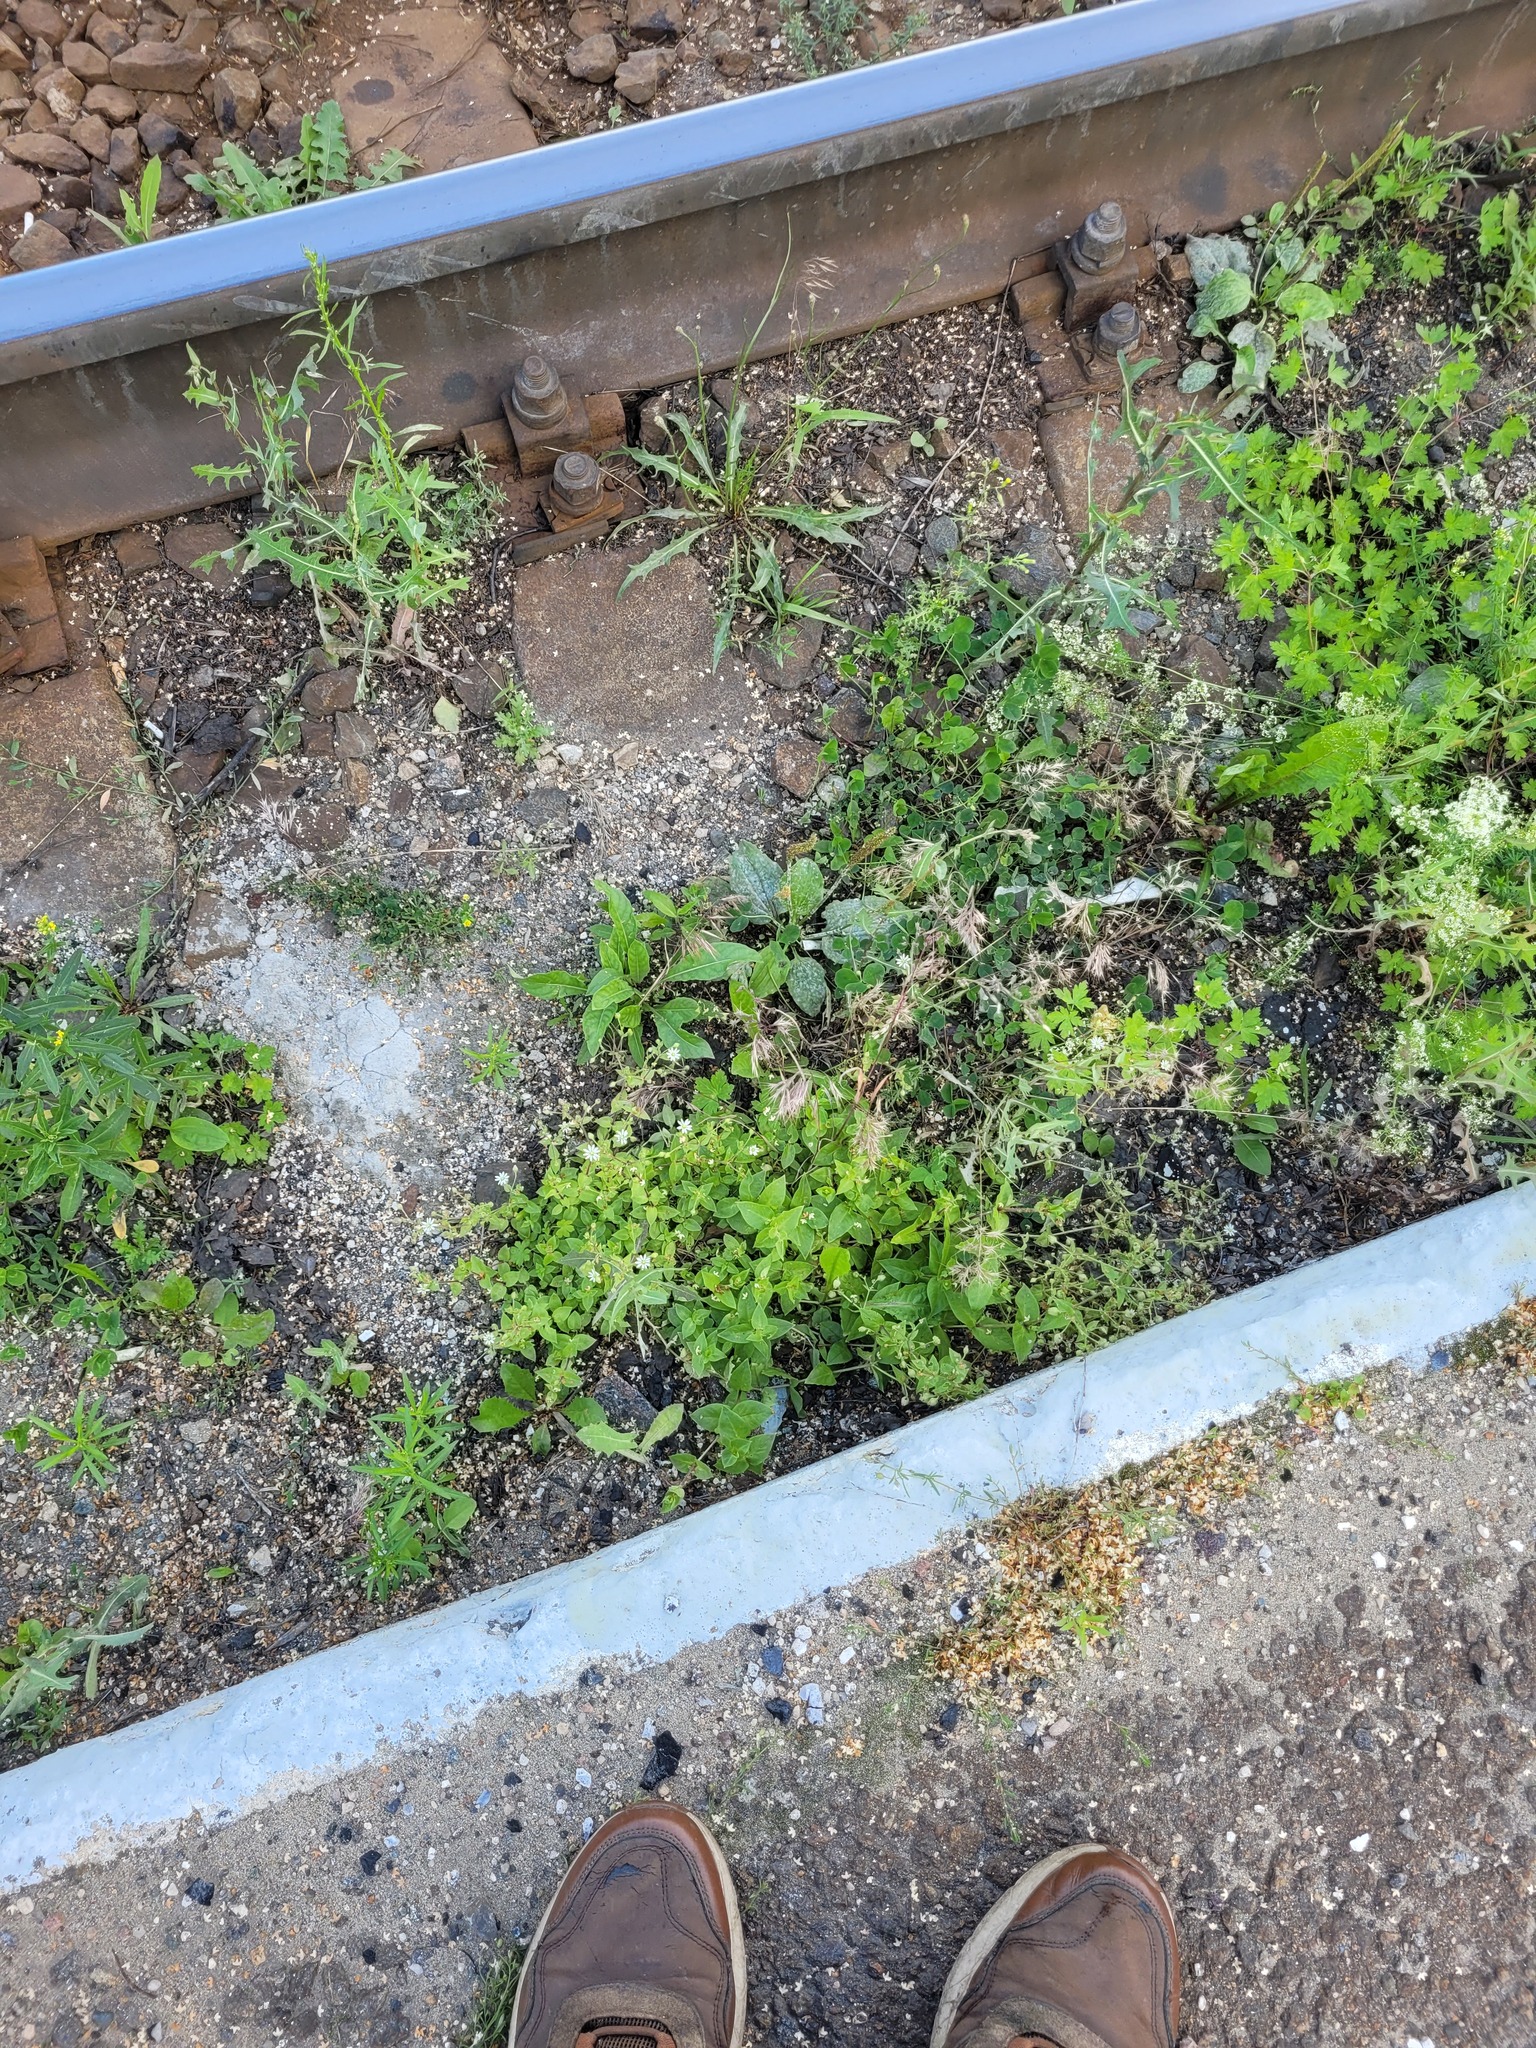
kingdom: Plantae
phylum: Tracheophyta
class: Magnoliopsida
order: Caryophyllales
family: Caryophyllaceae
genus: Stellaria
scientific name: Stellaria aquatica
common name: Water chickweed
